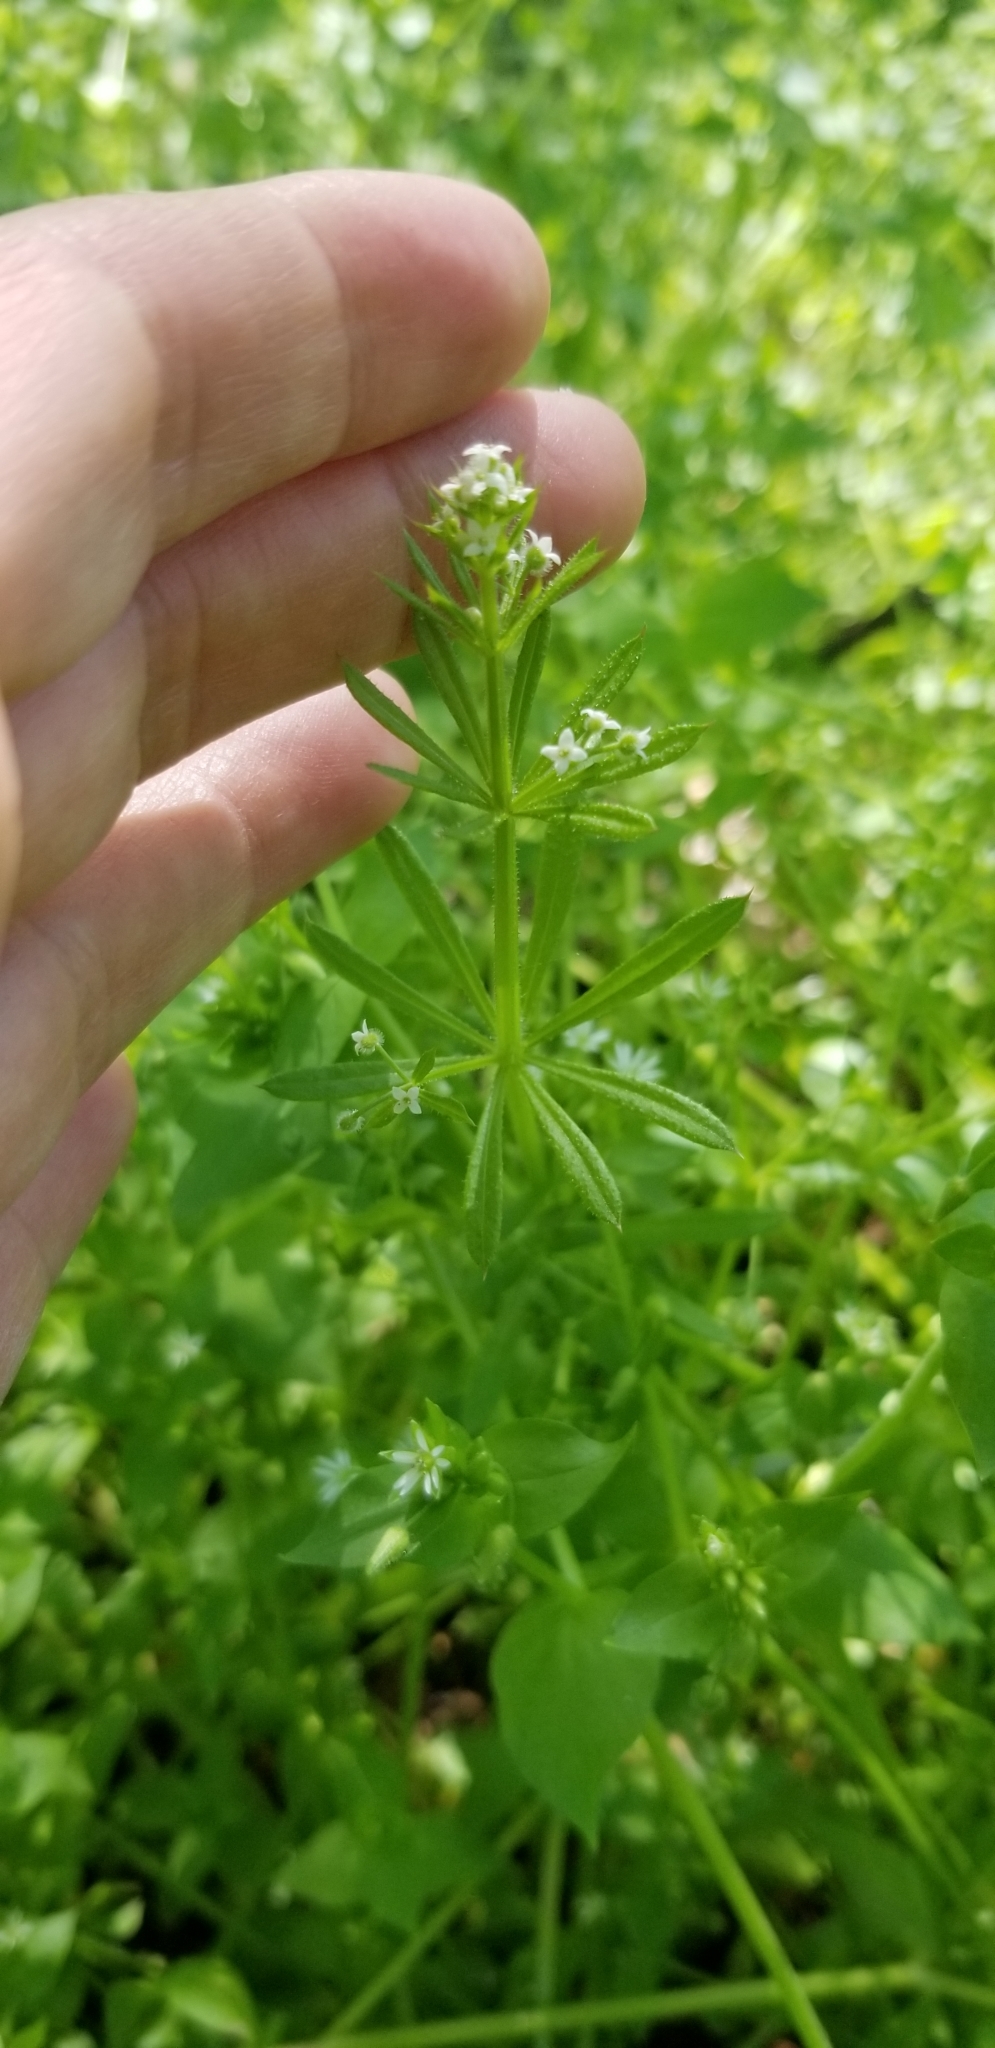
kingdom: Plantae
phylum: Tracheophyta
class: Magnoliopsida
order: Gentianales
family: Rubiaceae
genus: Galium
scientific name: Galium aparine
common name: Cleavers
